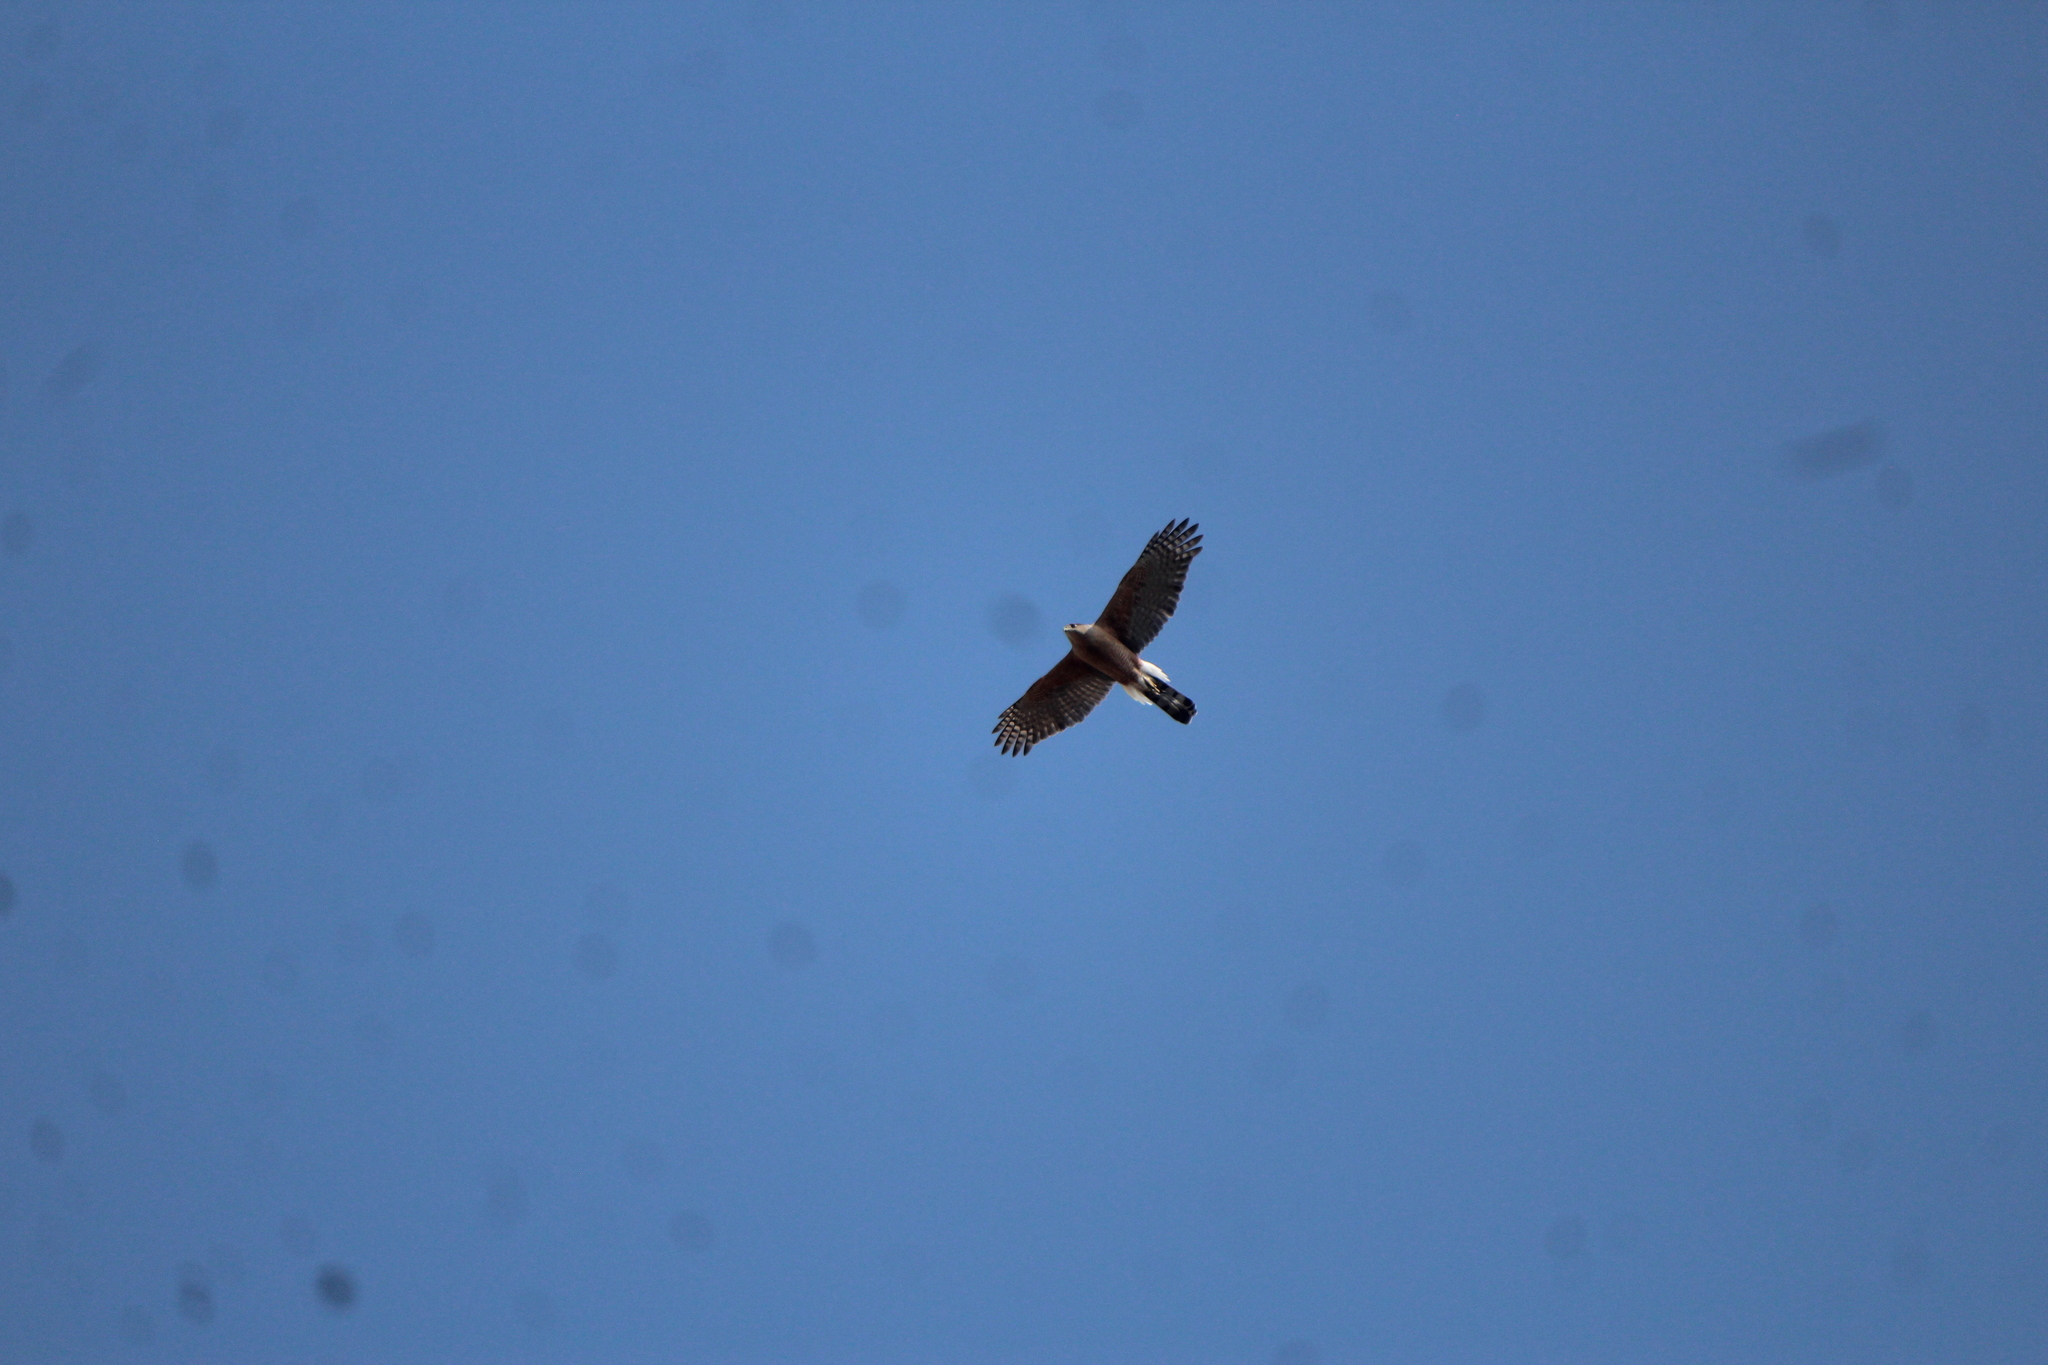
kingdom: Animalia
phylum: Chordata
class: Aves
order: Accipitriformes
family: Accipitridae
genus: Accipiter
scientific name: Accipiter cooperii
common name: Cooper's hawk
